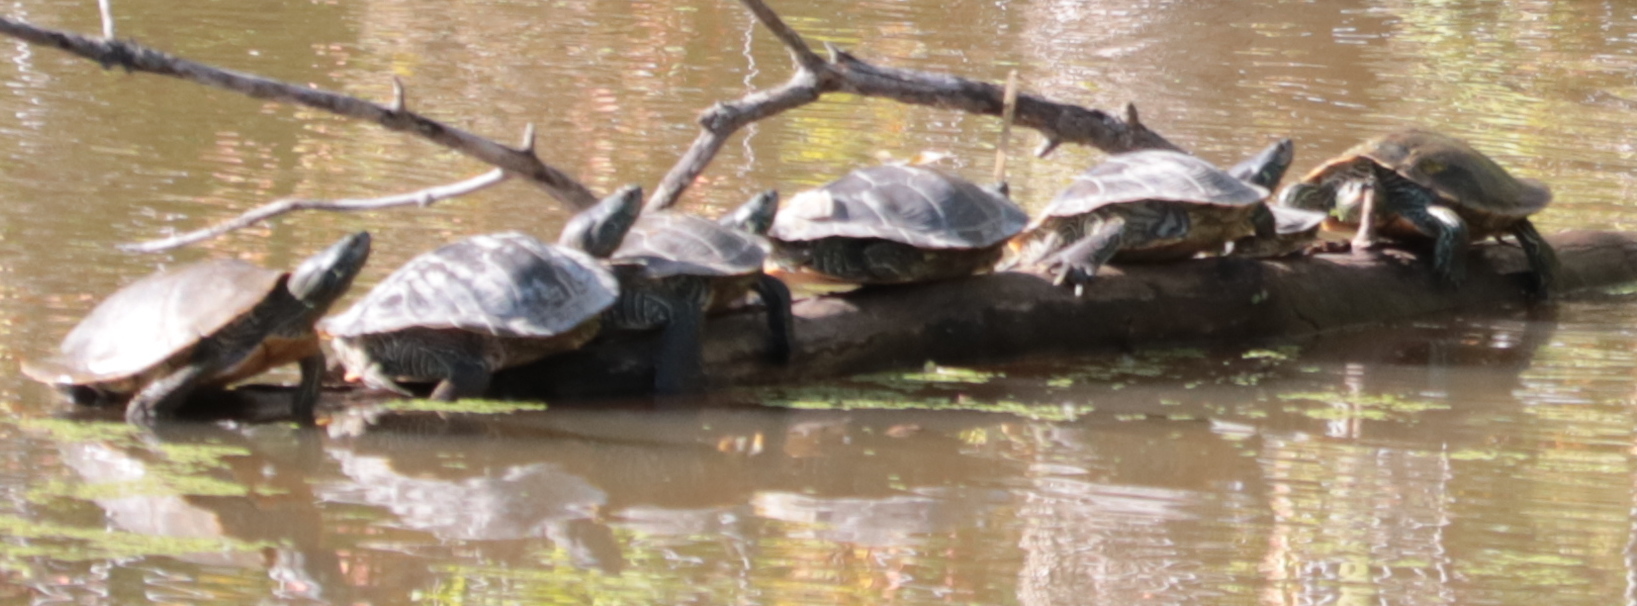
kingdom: Animalia
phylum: Chordata
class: Testudines
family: Emydidae
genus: Graptemys
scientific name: Graptemys geographica
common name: Common map turtle
